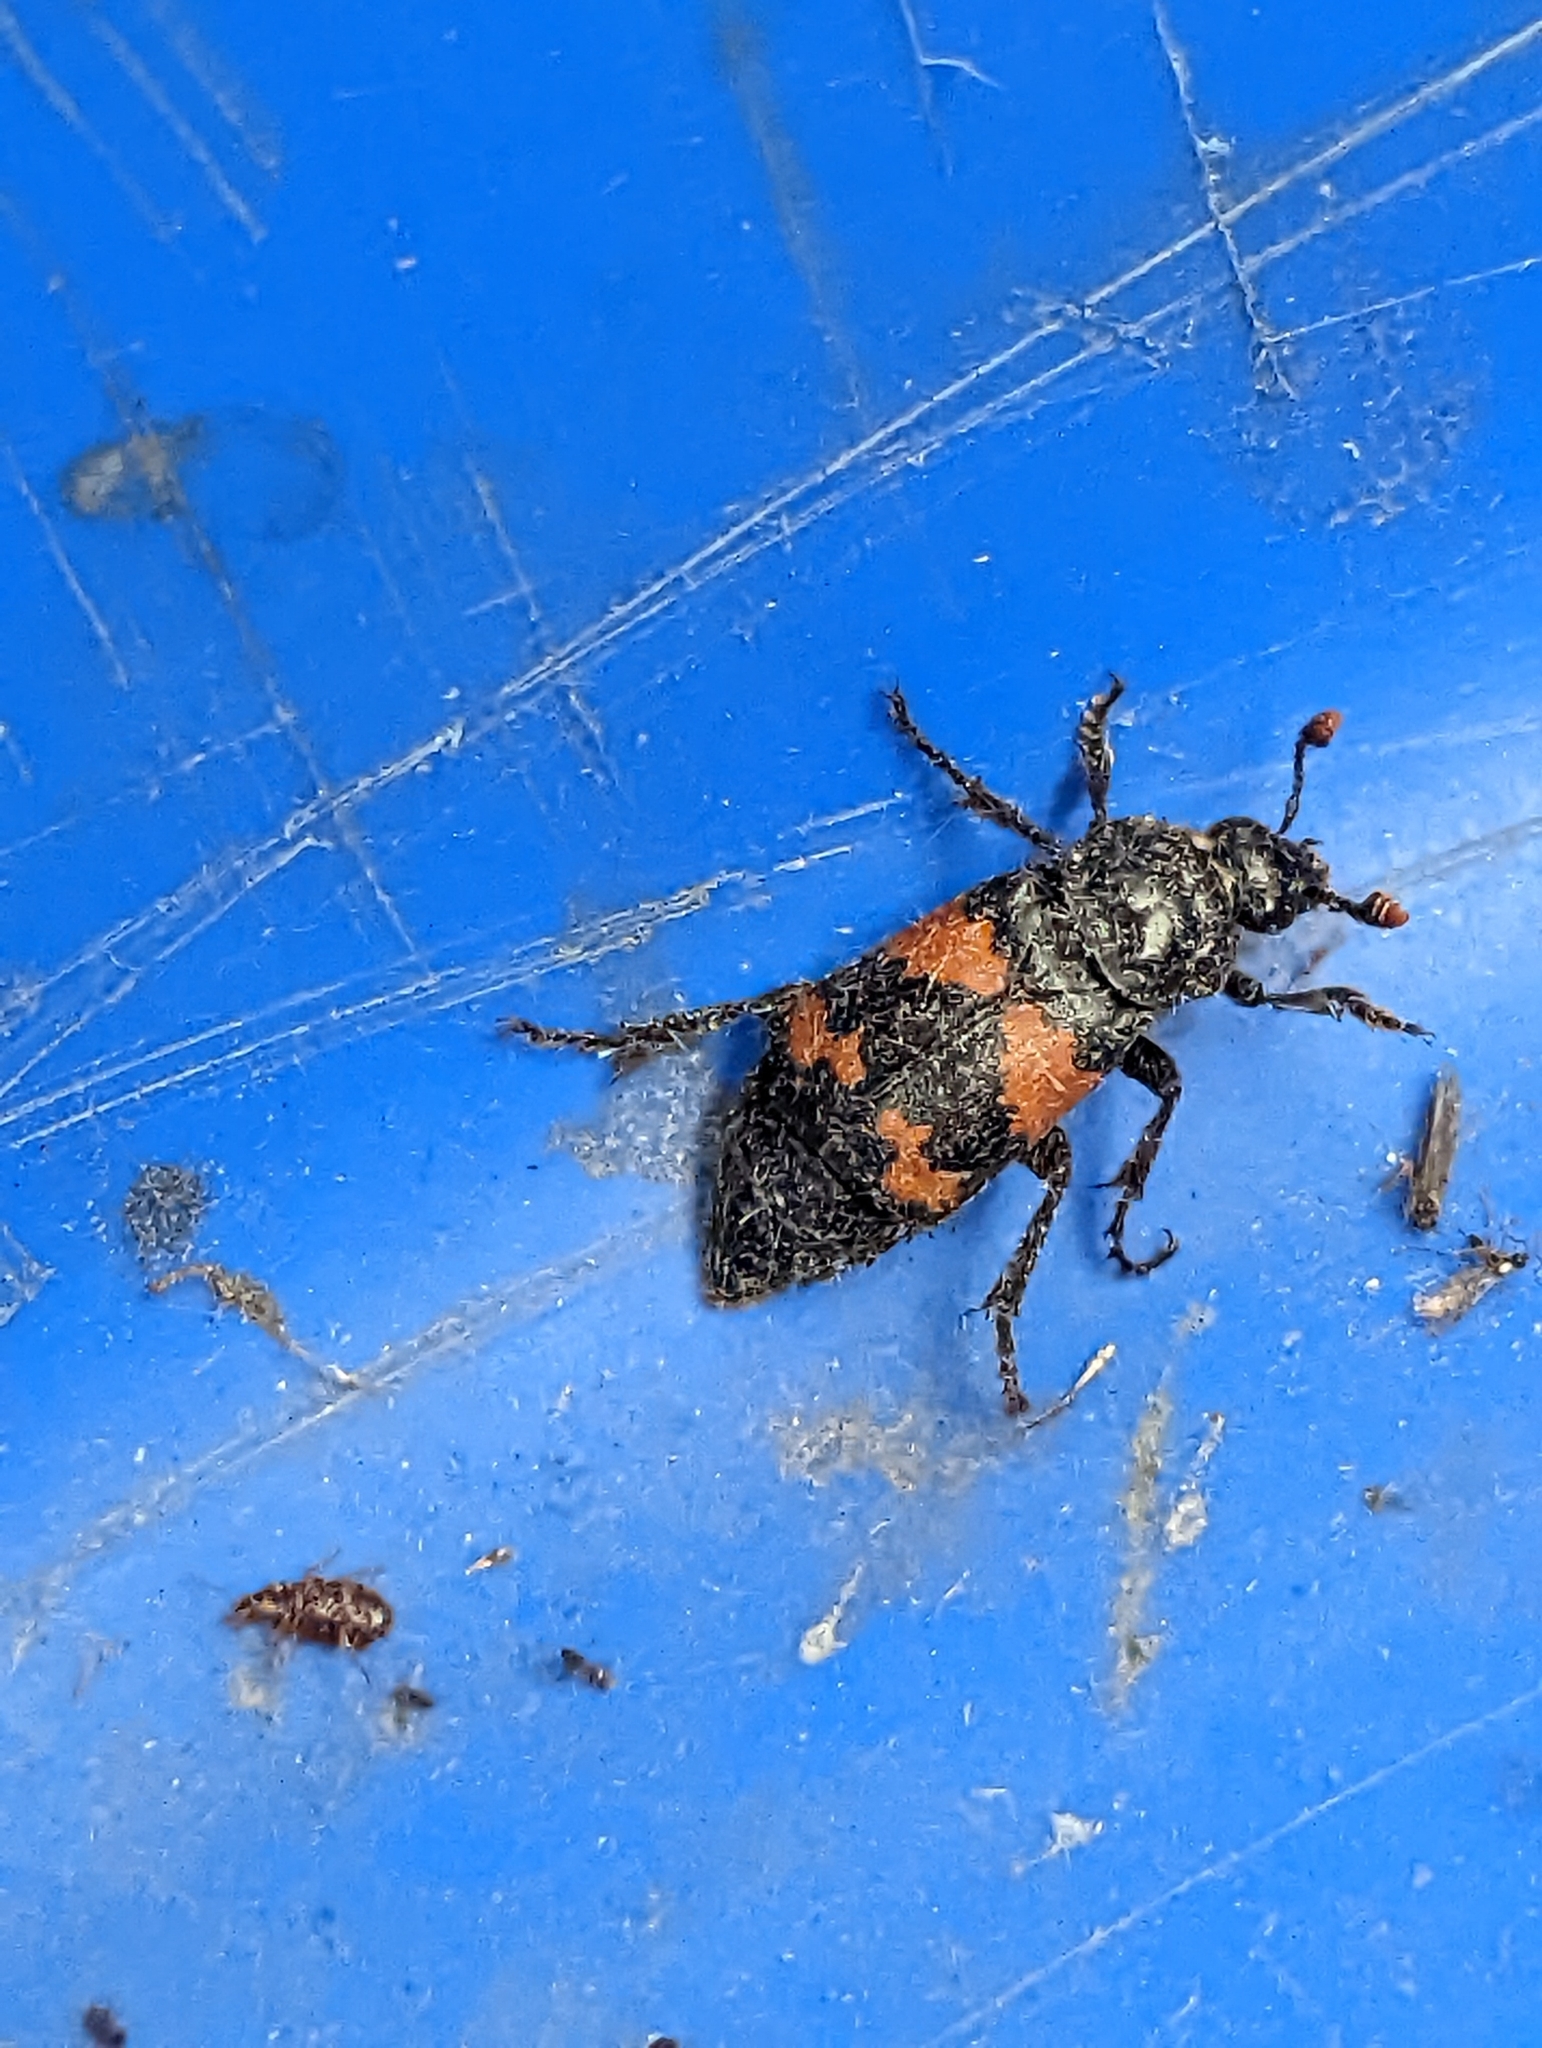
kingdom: Animalia
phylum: Arthropoda
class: Insecta
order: Coleoptera
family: Staphylinidae
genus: Nicrophorus
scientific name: Nicrophorus investigator
